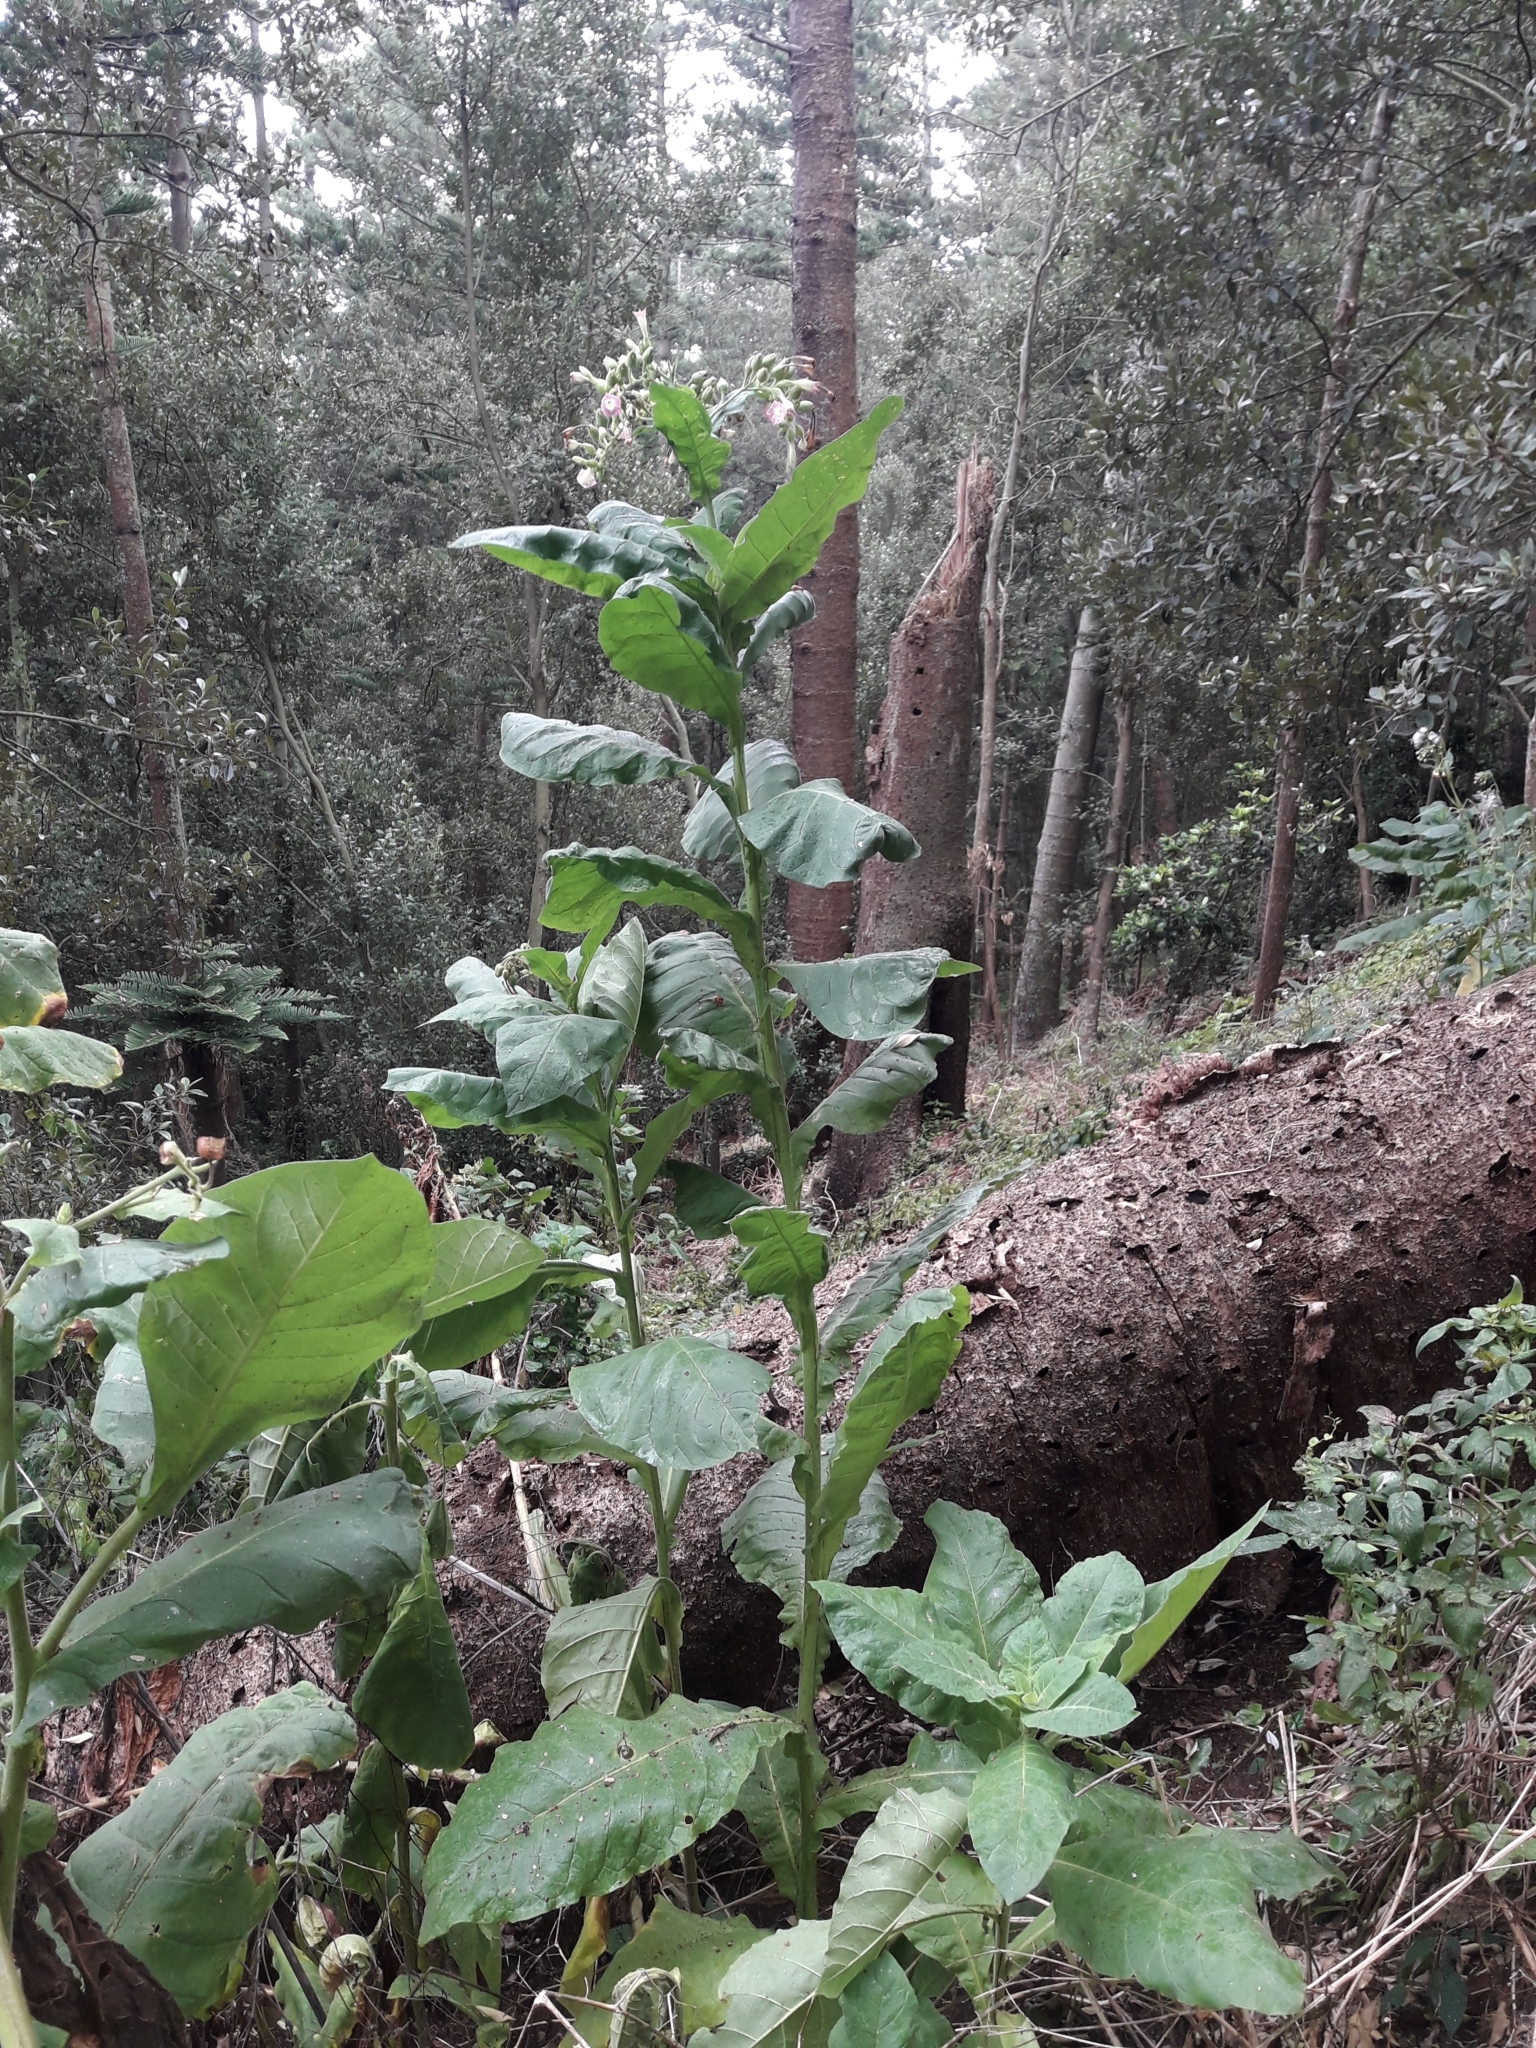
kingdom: Plantae
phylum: Tracheophyta
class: Magnoliopsida
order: Solanales
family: Solanaceae
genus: Nicotiana
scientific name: Nicotiana tabacum
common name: Tobacco
